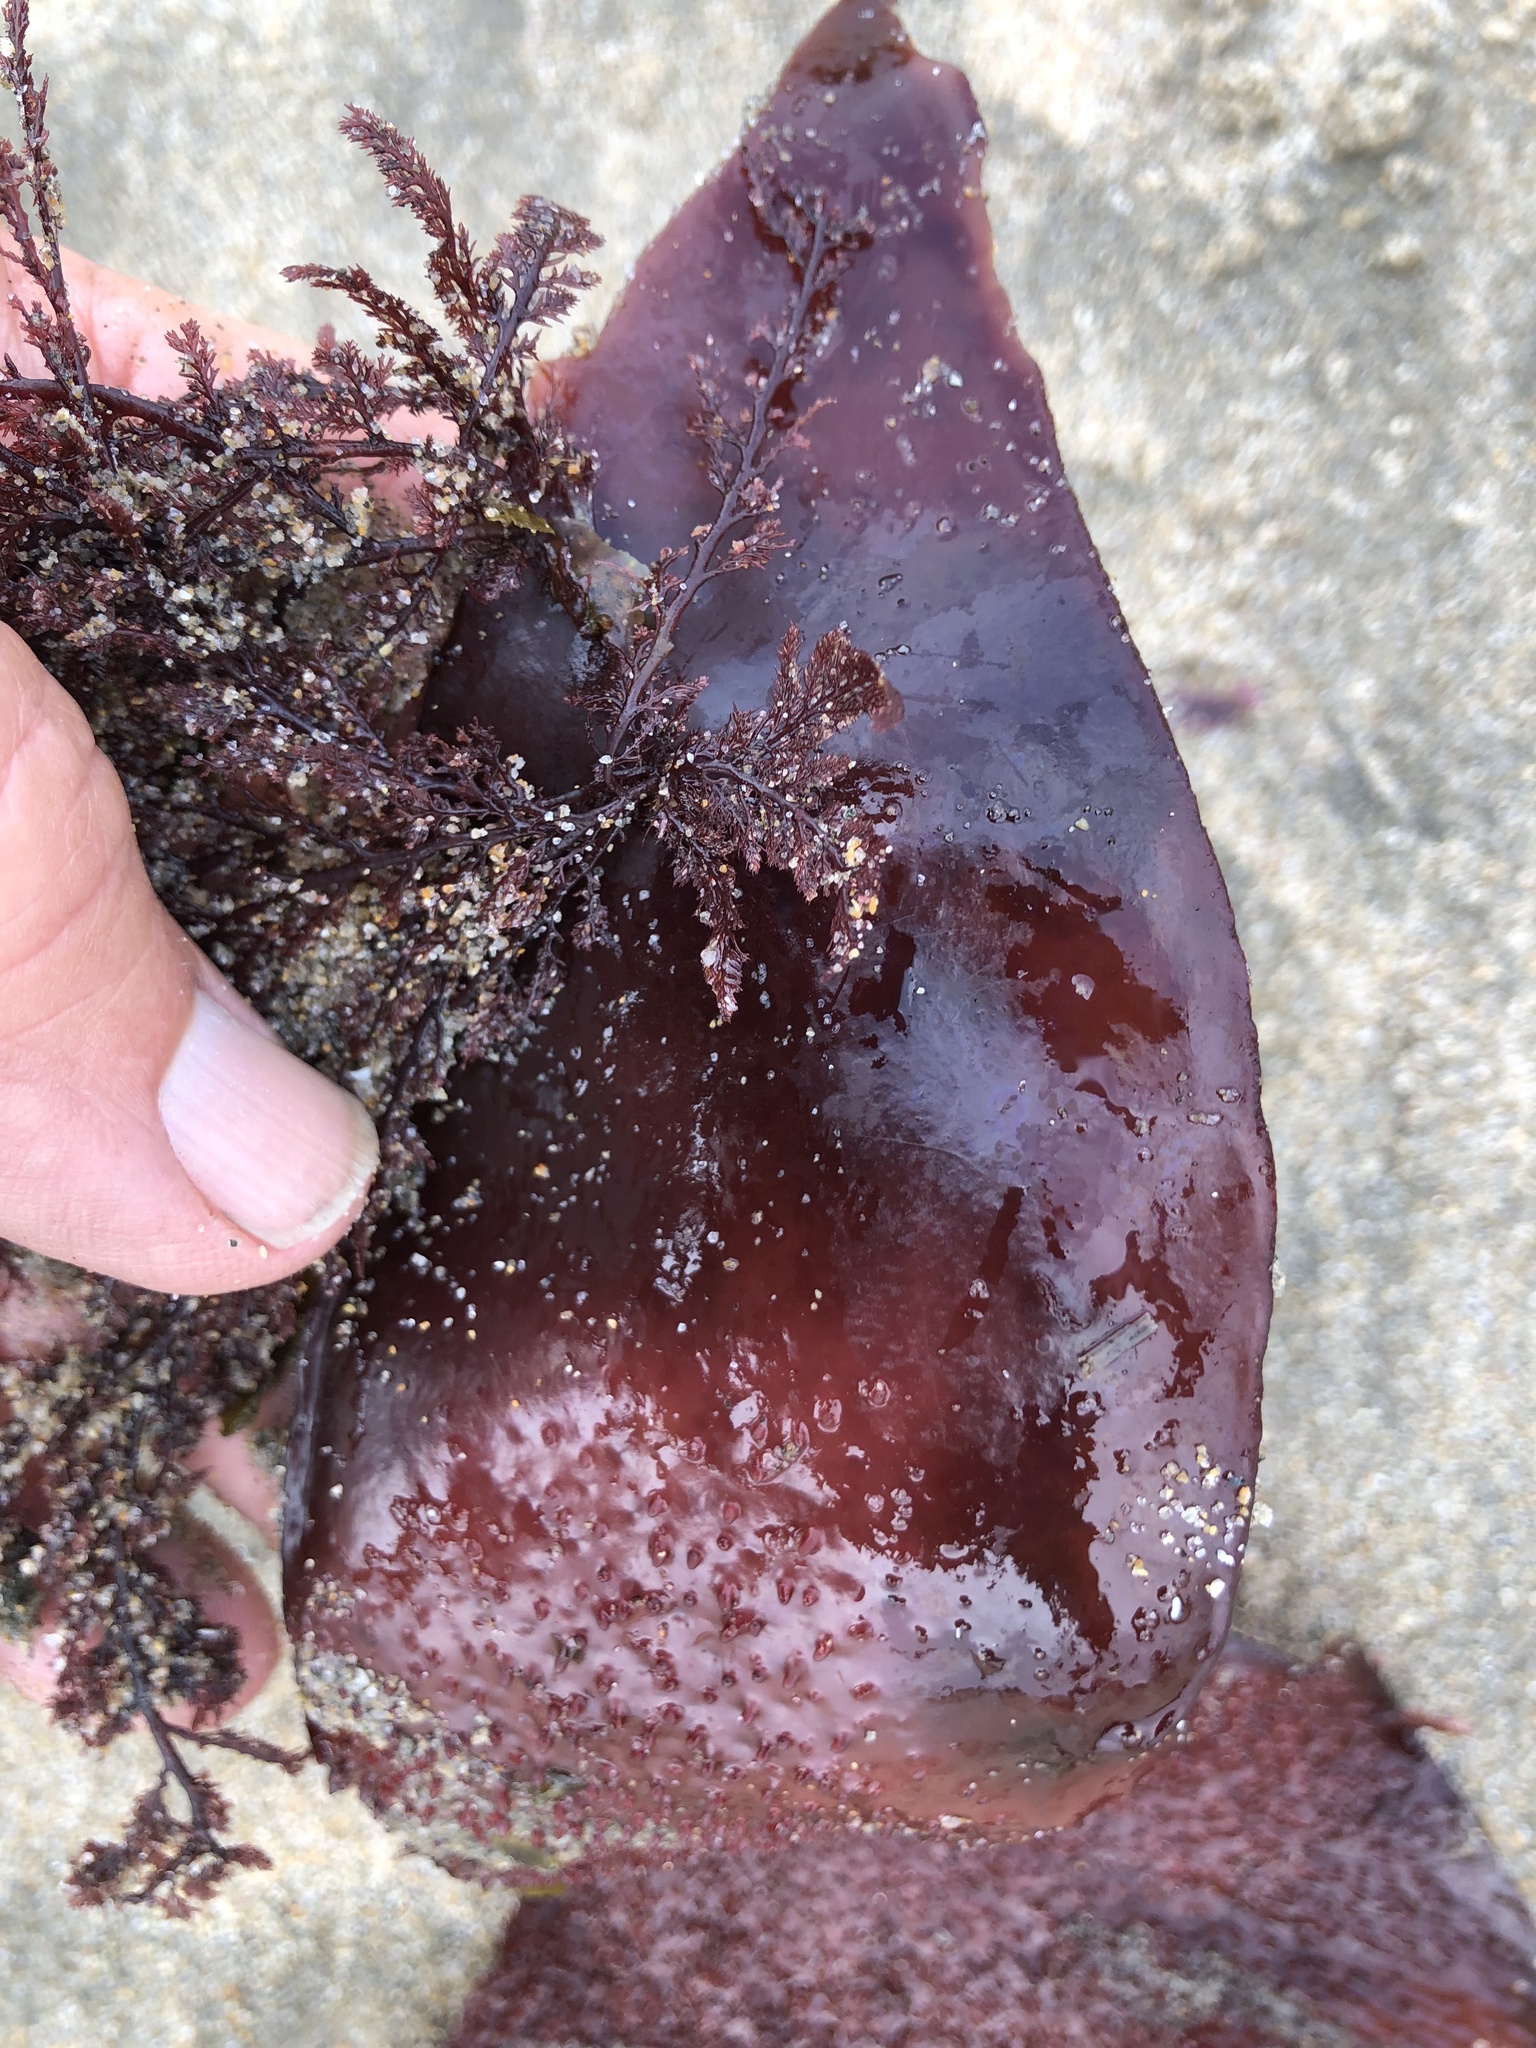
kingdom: Plantae
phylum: Rhodophyta
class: Florideophyceae
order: Gigartinales
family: Gigartinaceae
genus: Chondracanthus
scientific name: Chondracanthus exasperatus
